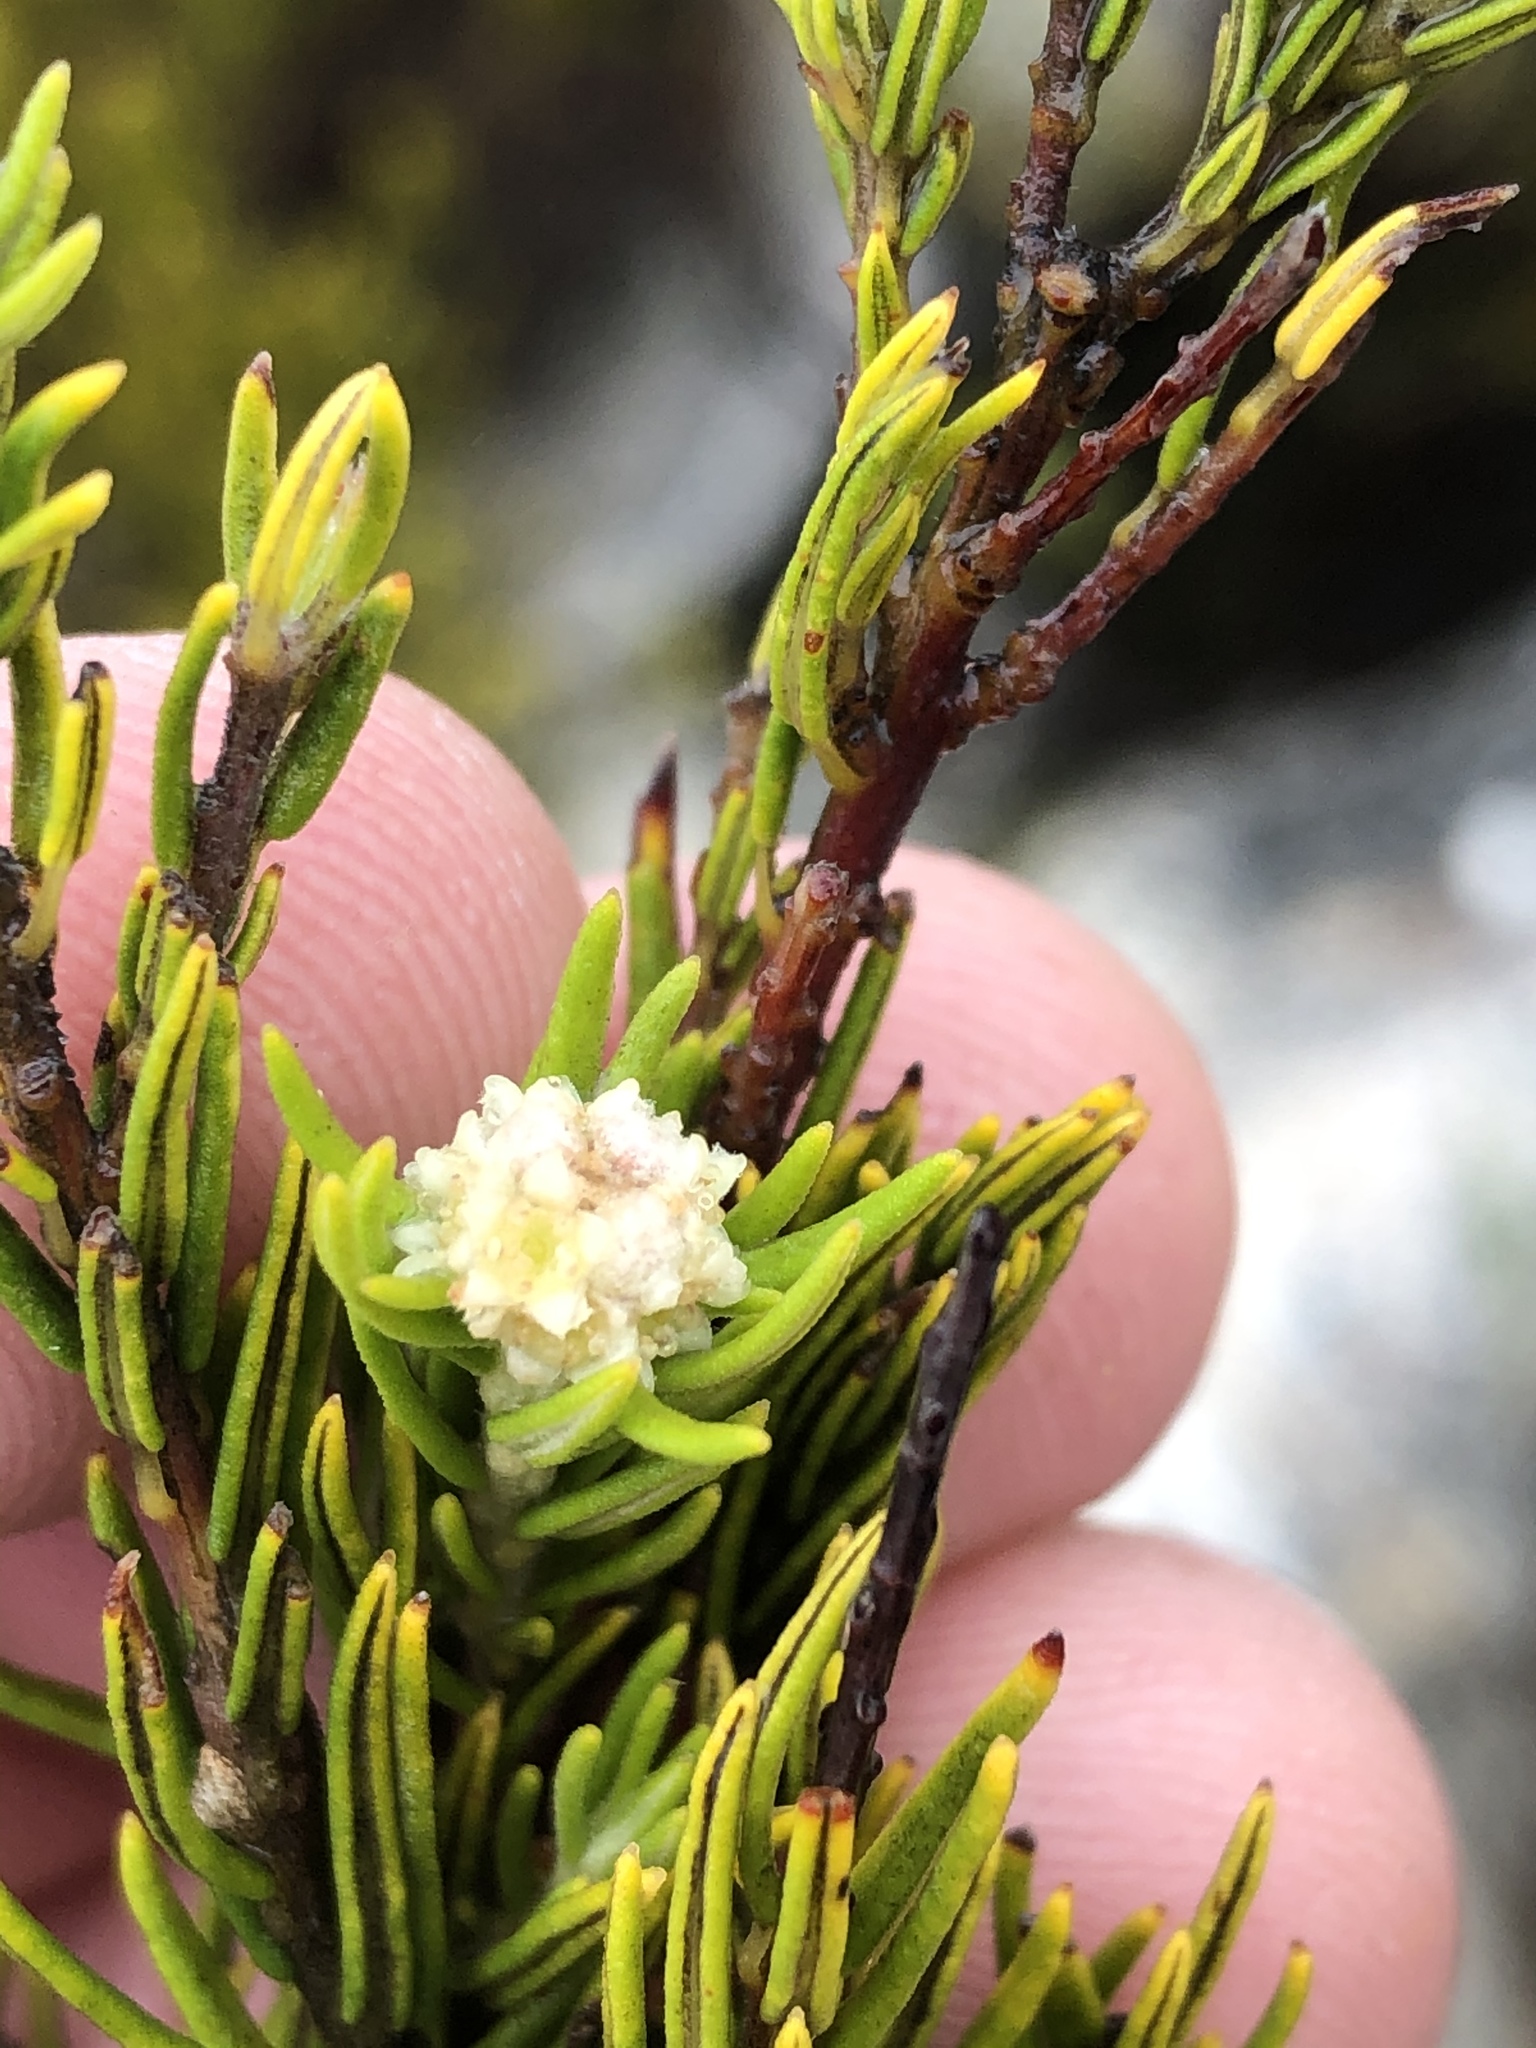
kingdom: Plantae
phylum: Tracheophyta
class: Magnoliopsida
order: Rosales
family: Rhamnaceae
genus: Phylica
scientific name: Phylica wittebergensis
